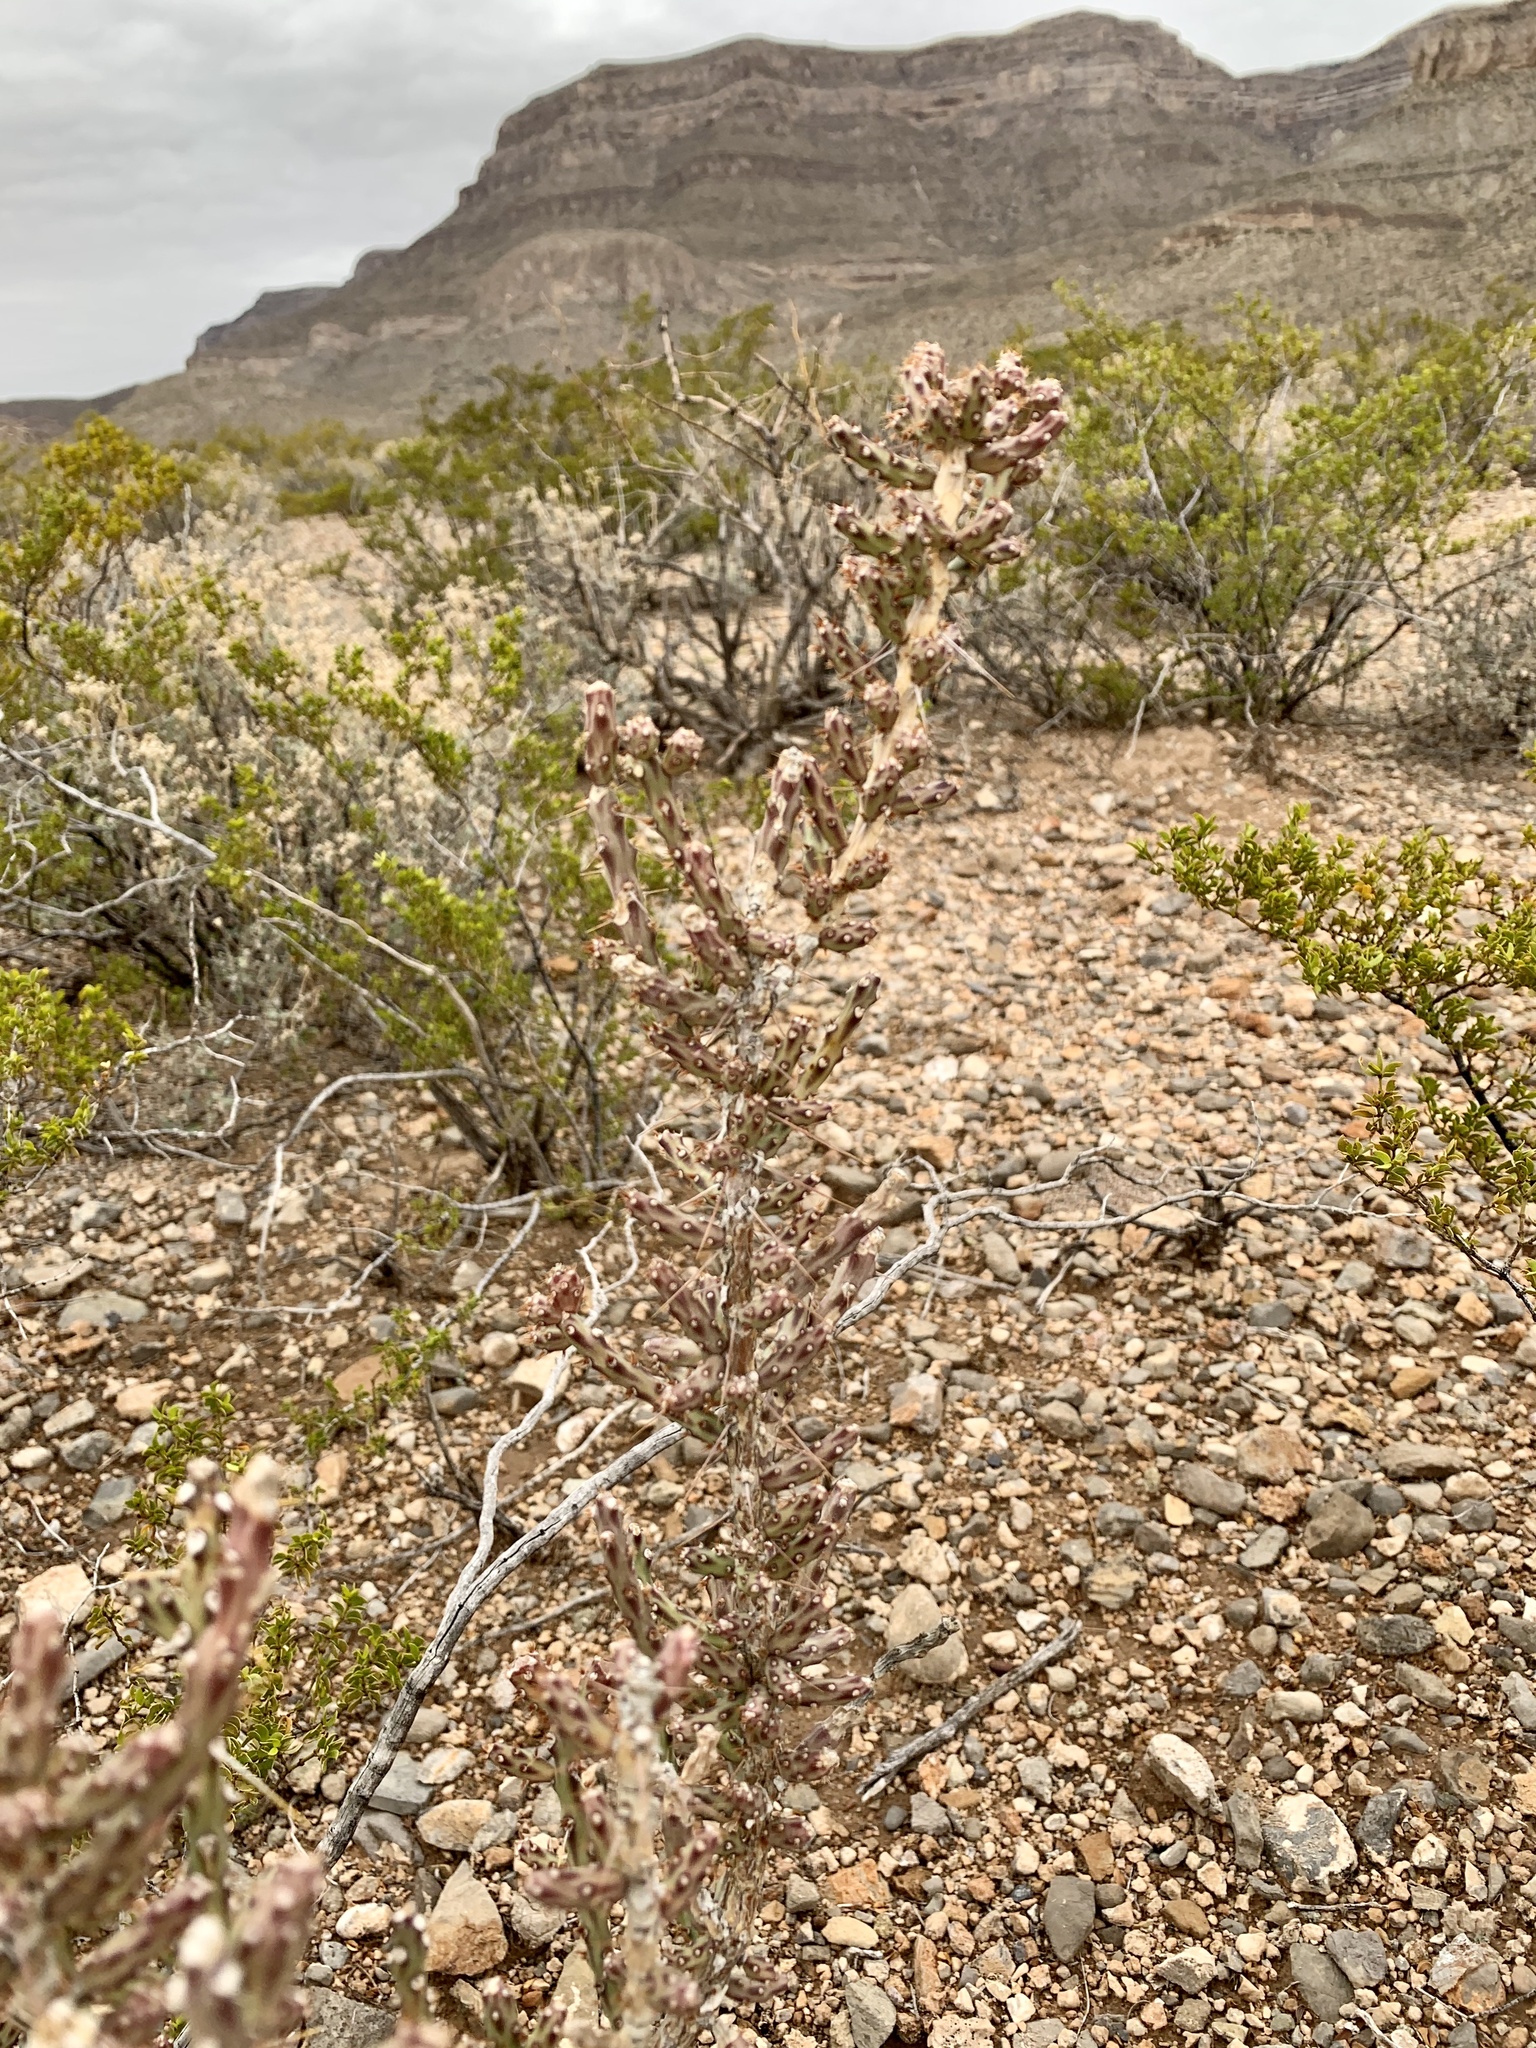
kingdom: Plantae
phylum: Tracheophyta
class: Magnoliopsida
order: Caryophyllales
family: Cactaceae
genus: Cylindropuntia
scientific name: Cylindropuntia leptocaulis
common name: Christmas cactus
